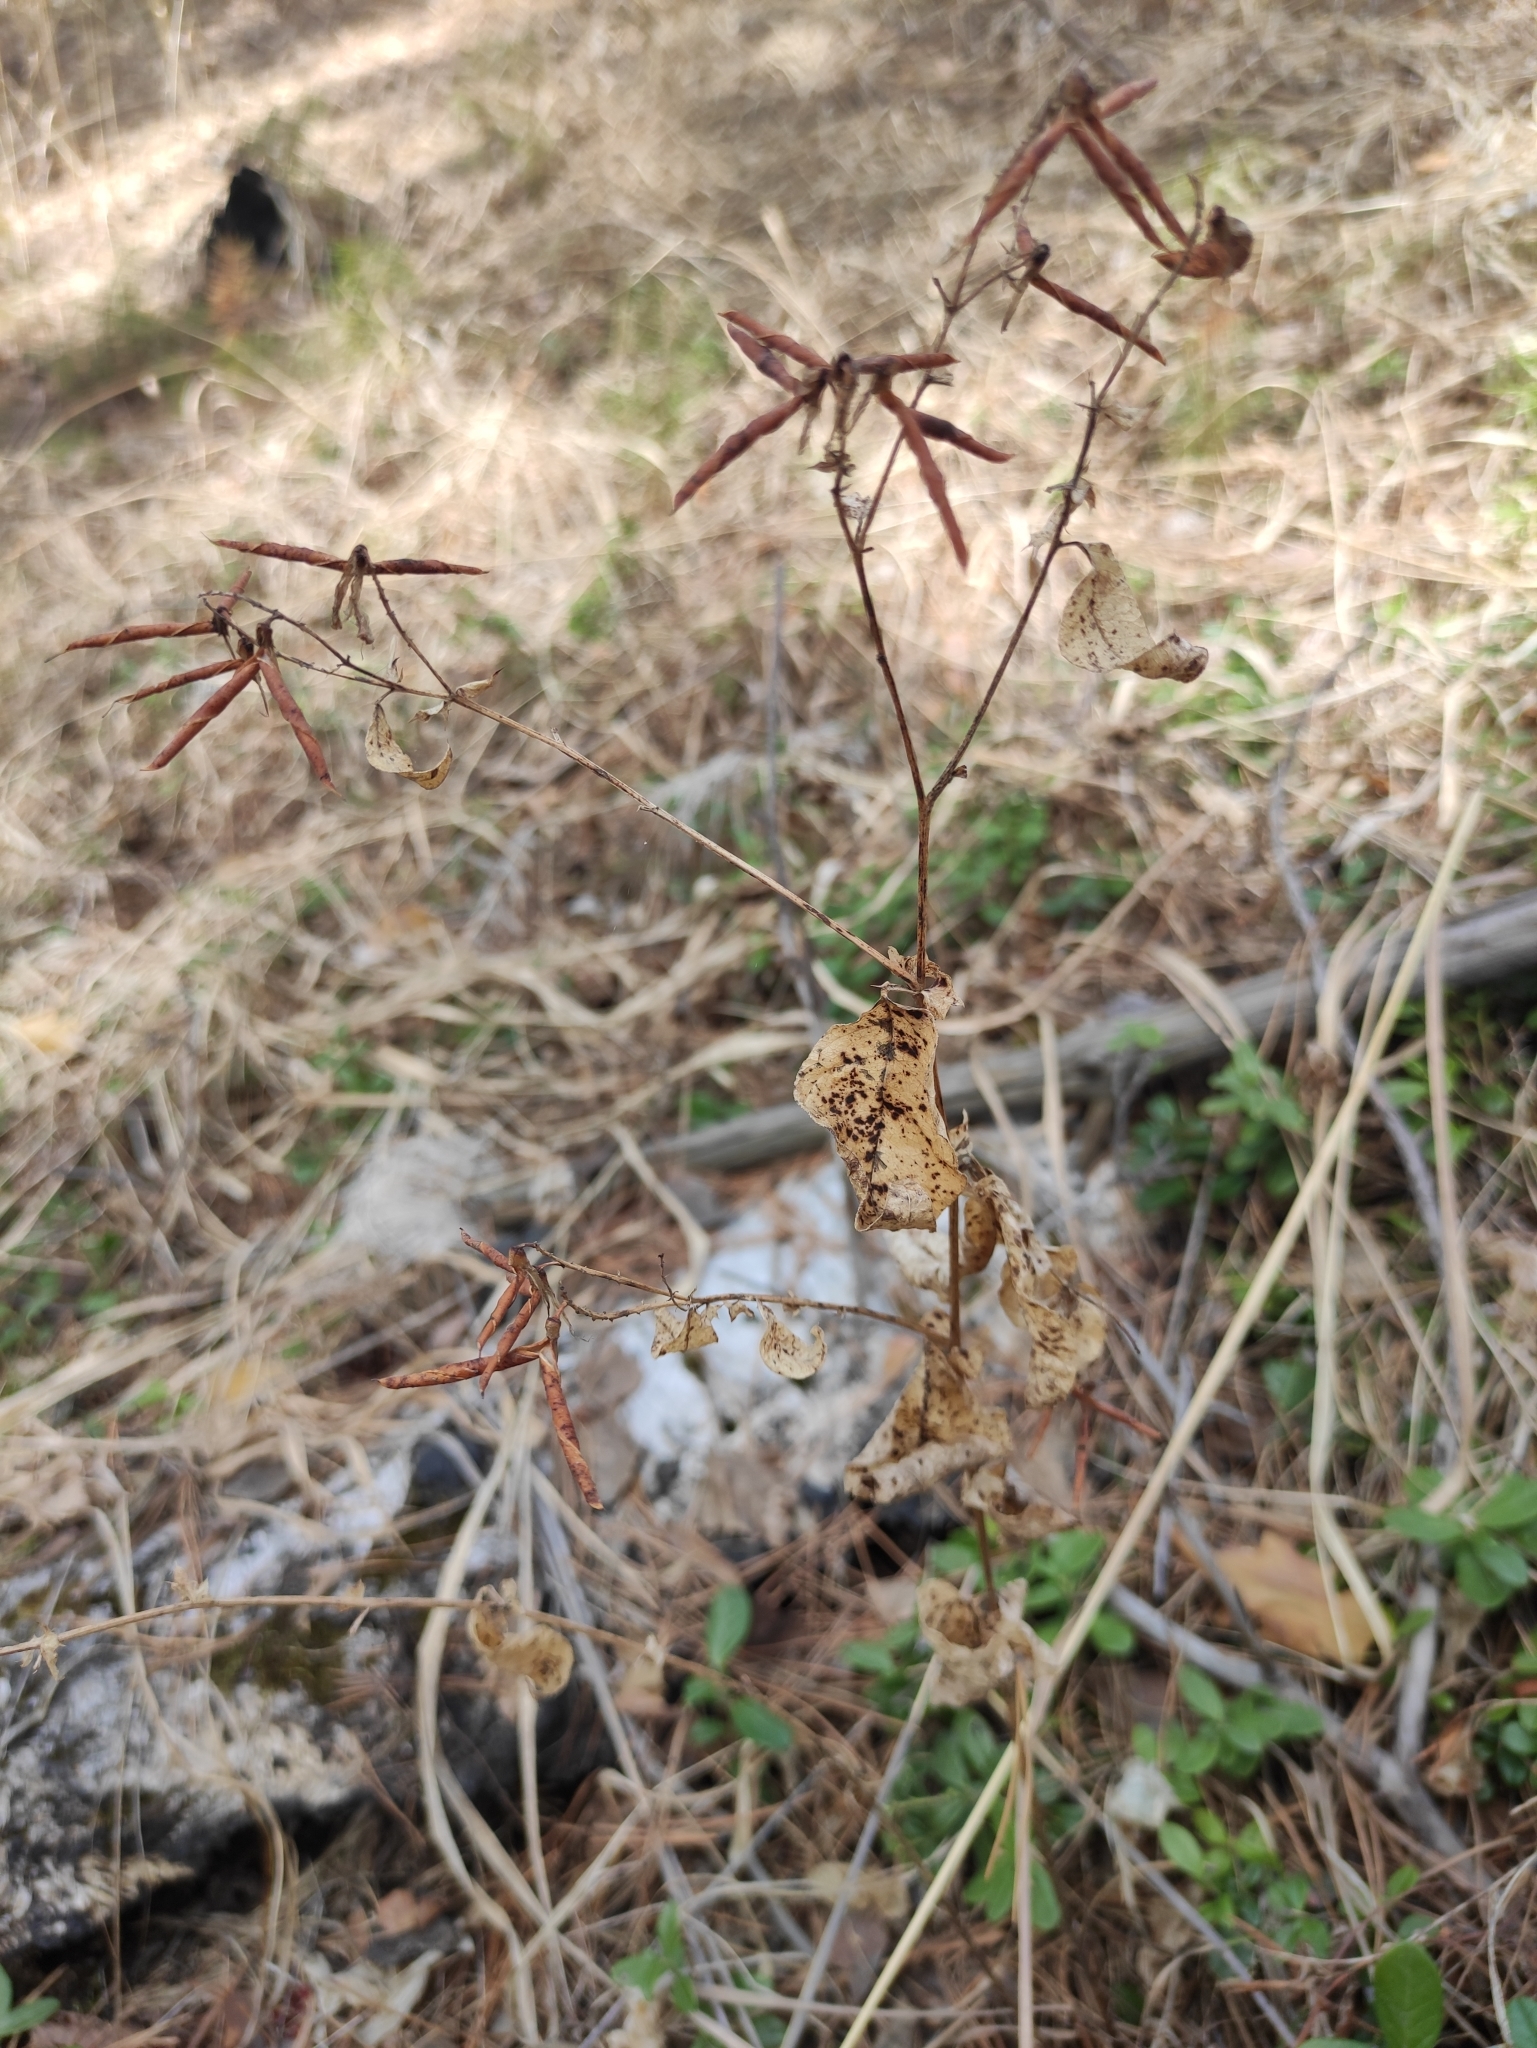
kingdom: Plantae
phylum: Tracheophyta
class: Magnoliopsida
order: Fabales
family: Fabaceae
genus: Vicia
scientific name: Vicia unijuga
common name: Two-leaf vetch
